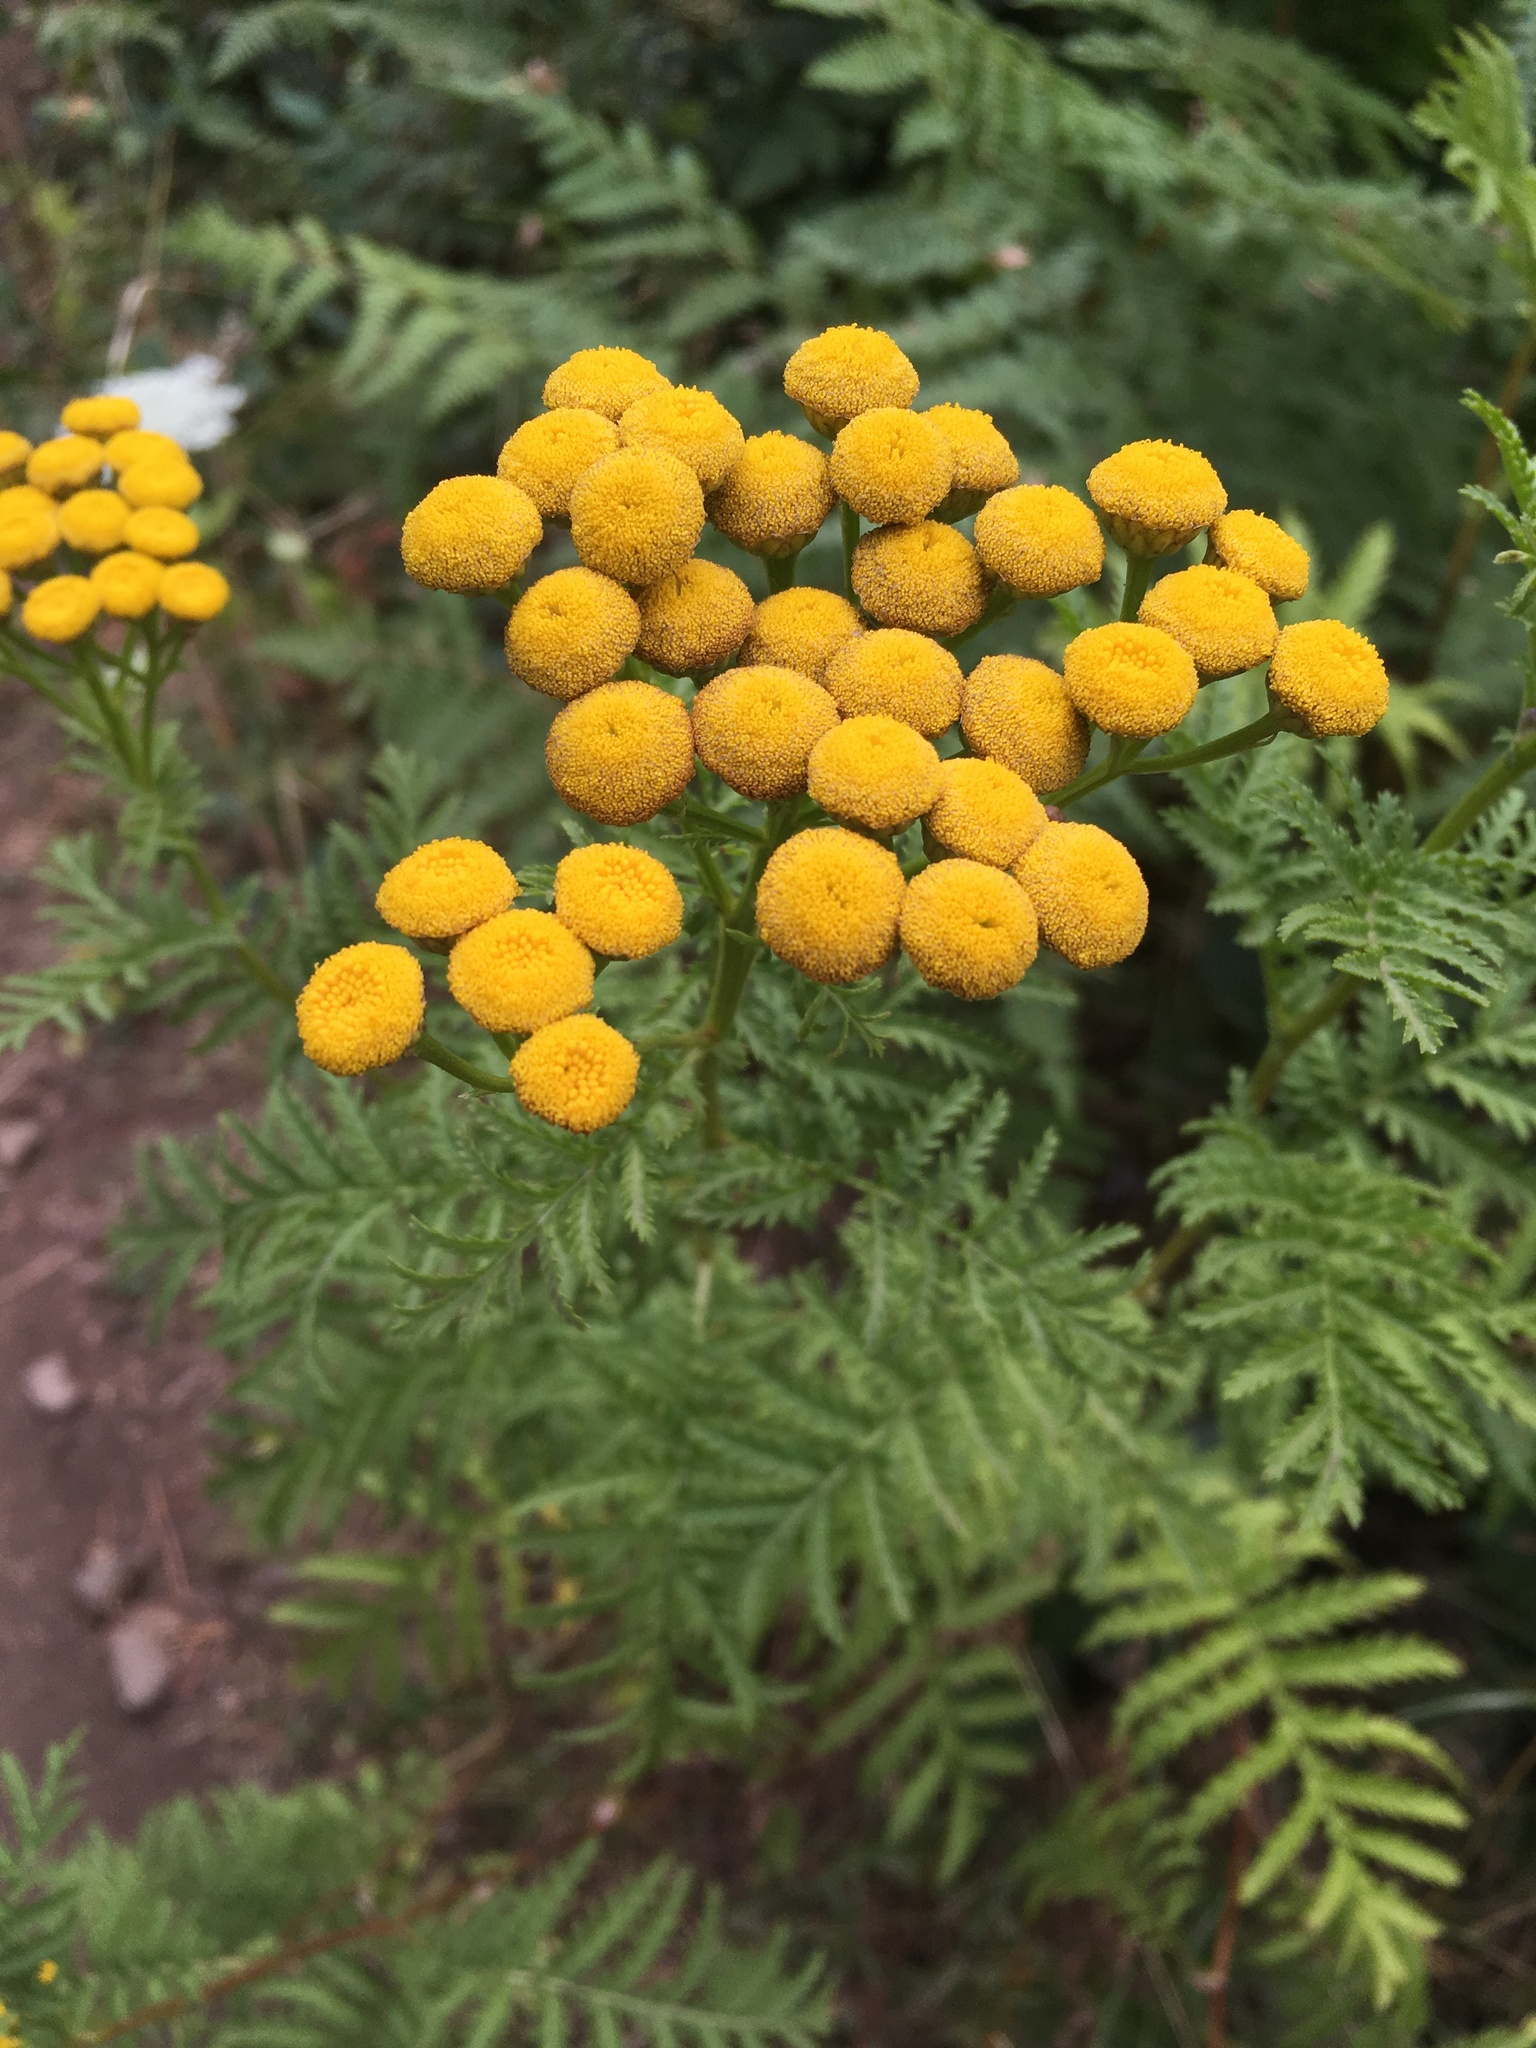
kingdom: Plantae
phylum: Tracheophyta
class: Magnoliopsida
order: Asterales
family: Asteraceae
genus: Tanacetum
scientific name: Tanacetum vulgare
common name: Common tansy
